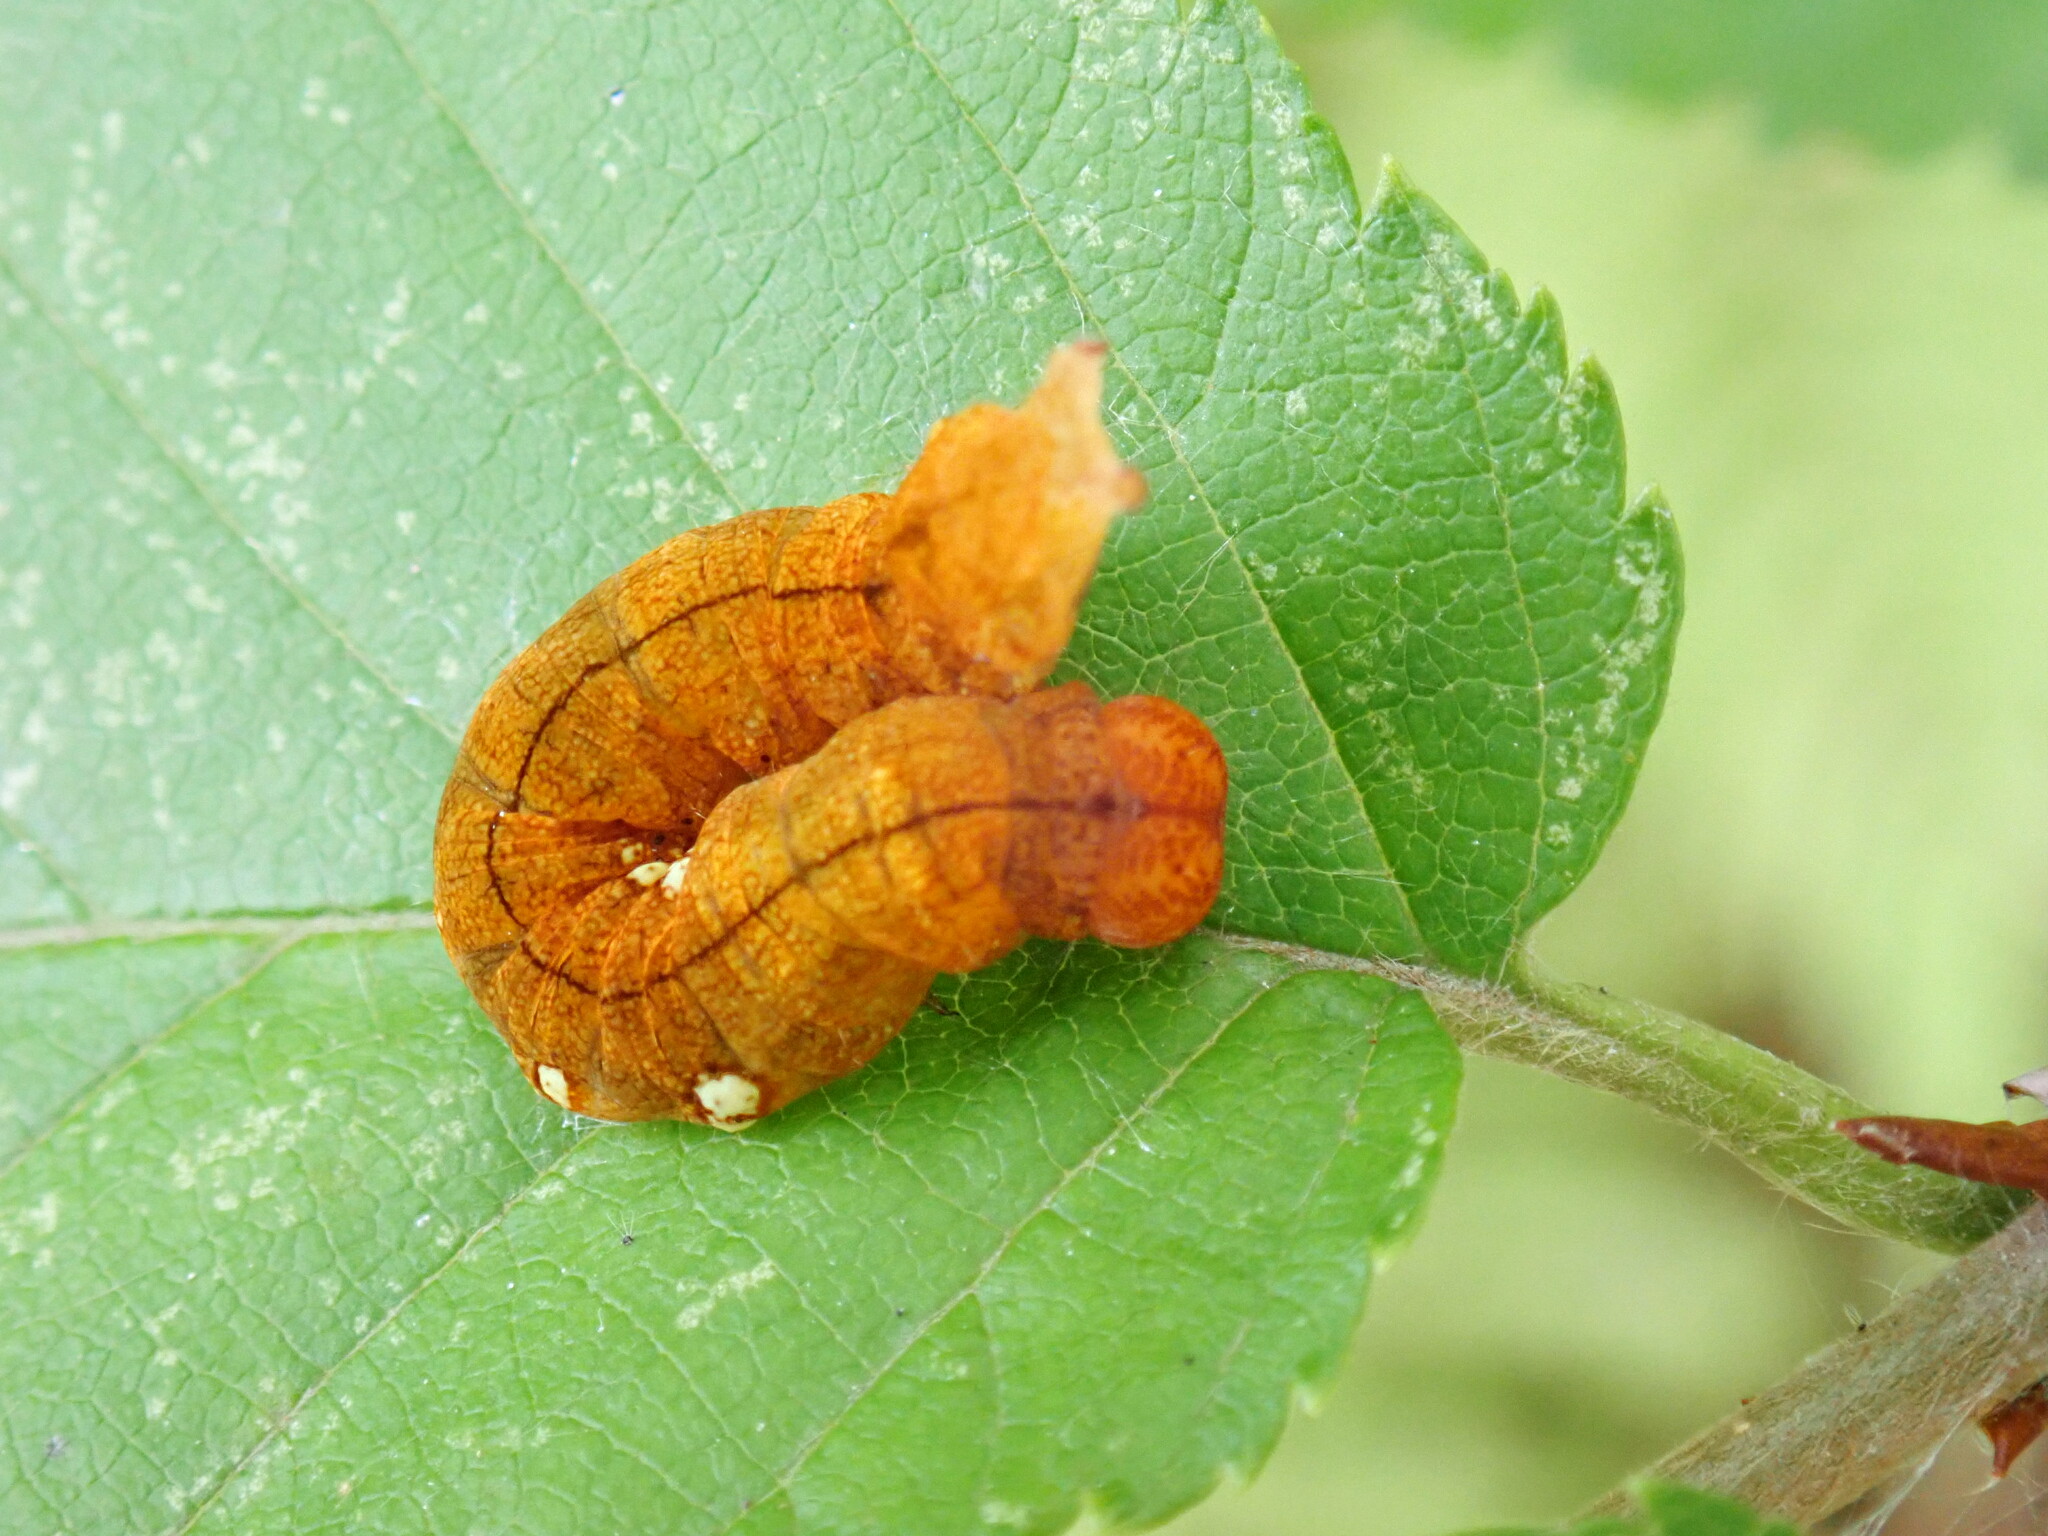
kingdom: Animalia
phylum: Arthropoda
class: Insecta
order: Lepidoptera
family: Drepanidae
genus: Pseudothyatira
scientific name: Pseudothyatira cymatophoroides
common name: Tufted thyatirid moth
